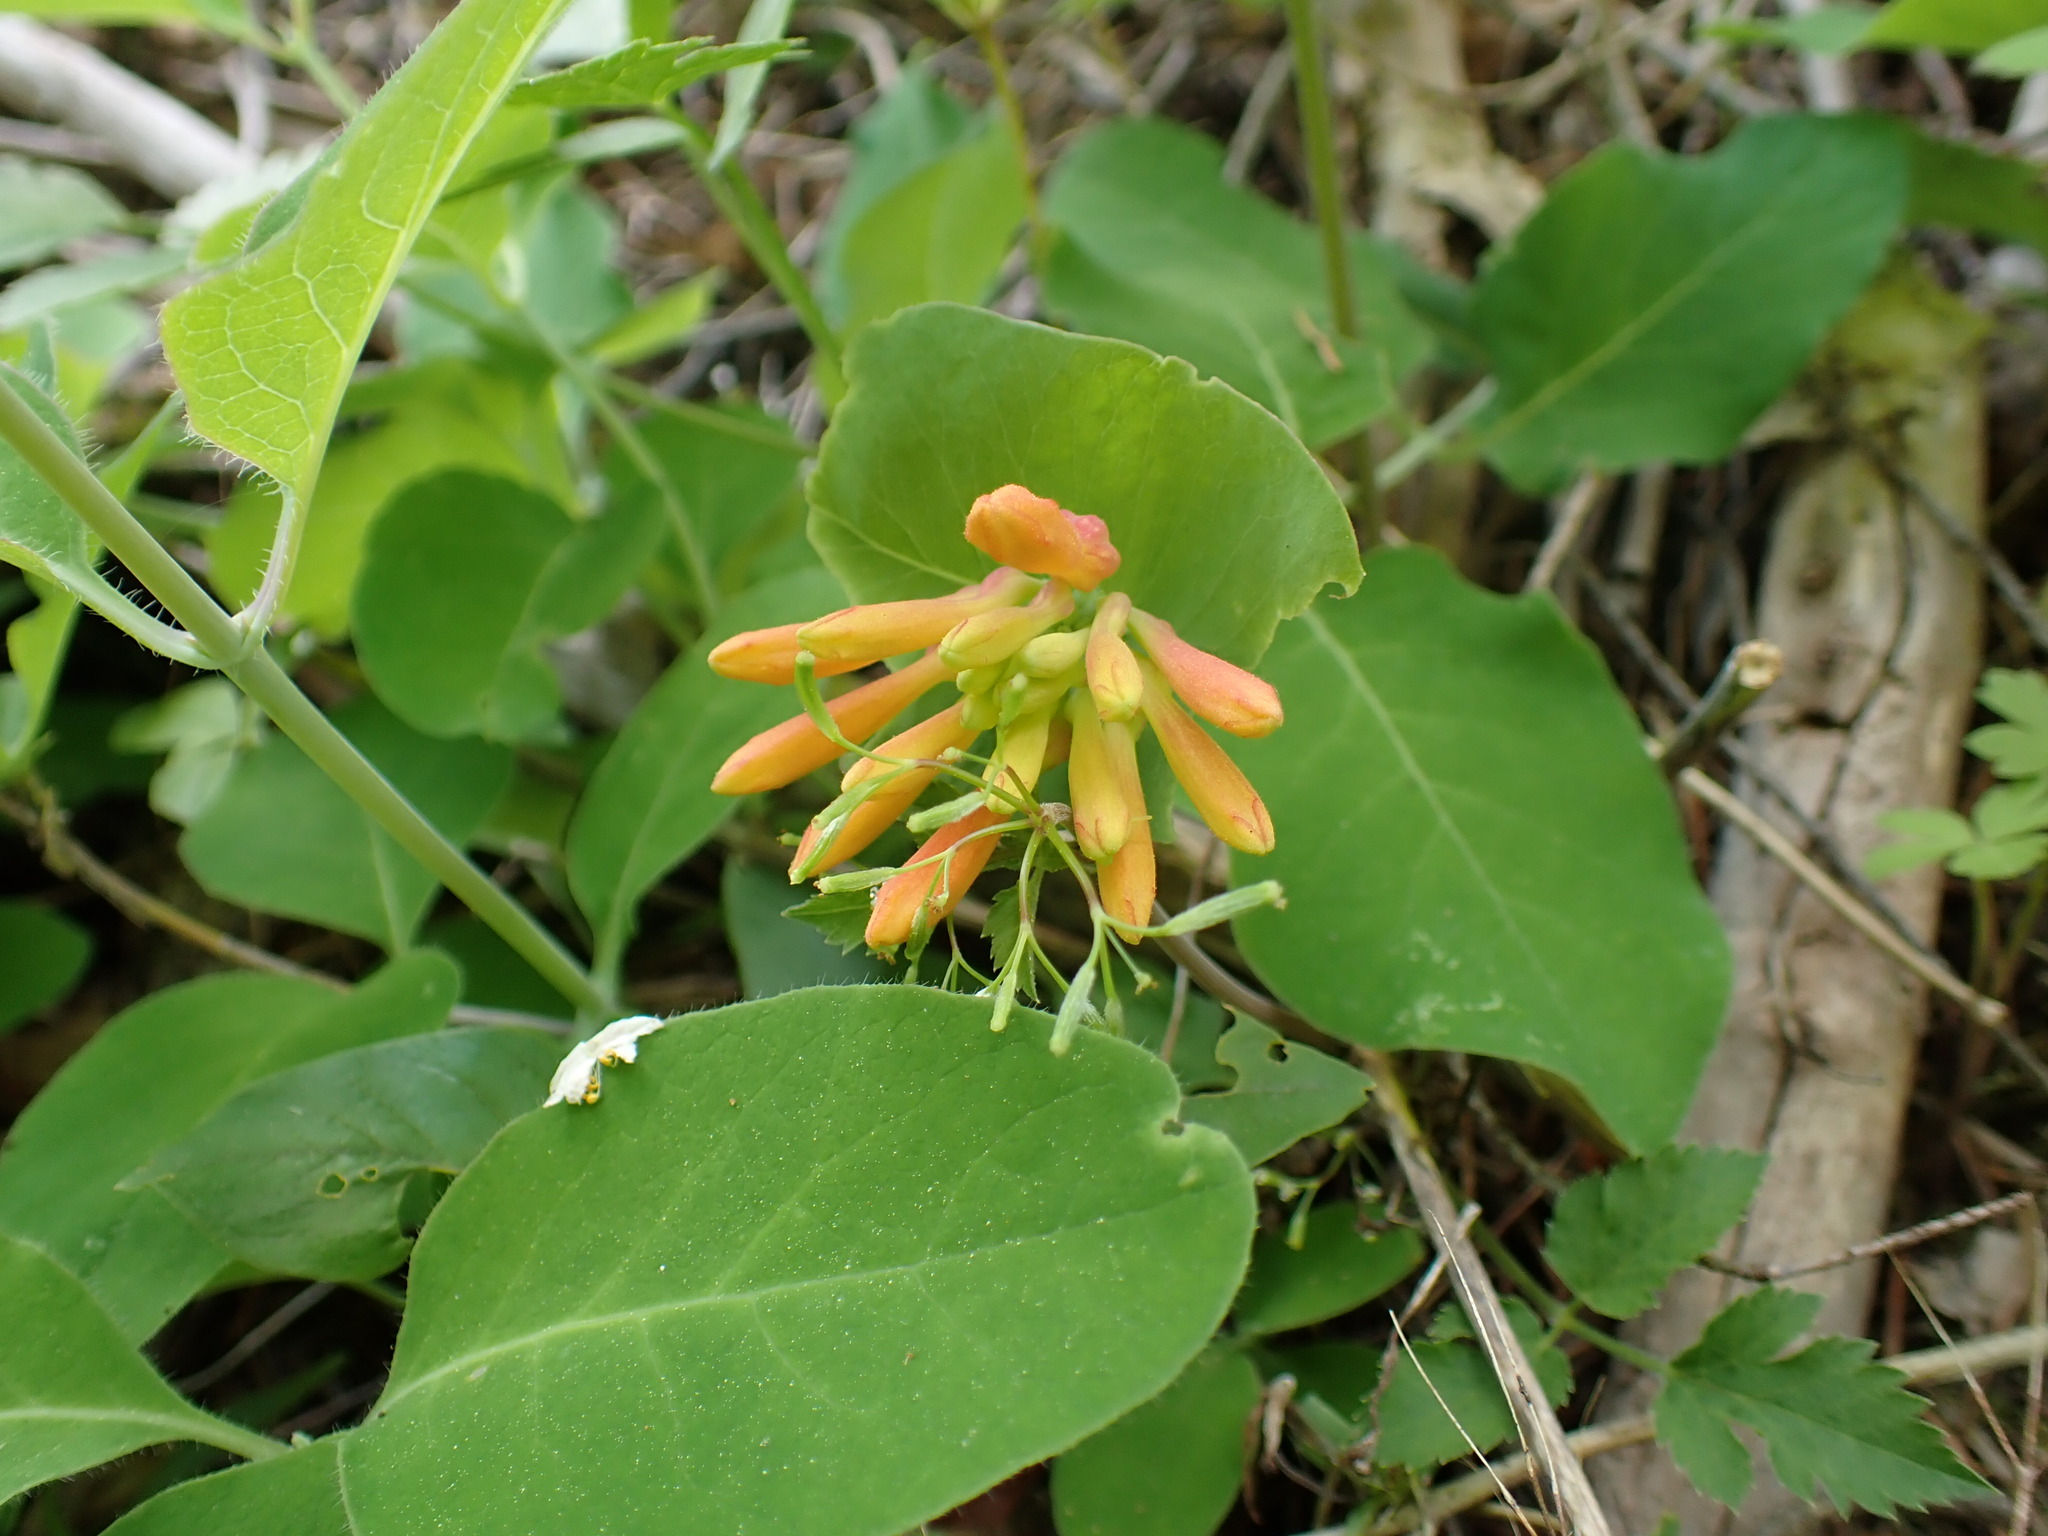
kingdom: Plantae
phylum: Tracheophyta
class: Magnoliopsida
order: Dipsacales
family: Caprifoliaceae
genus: Lonicera
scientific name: Lonicera ciliosa
